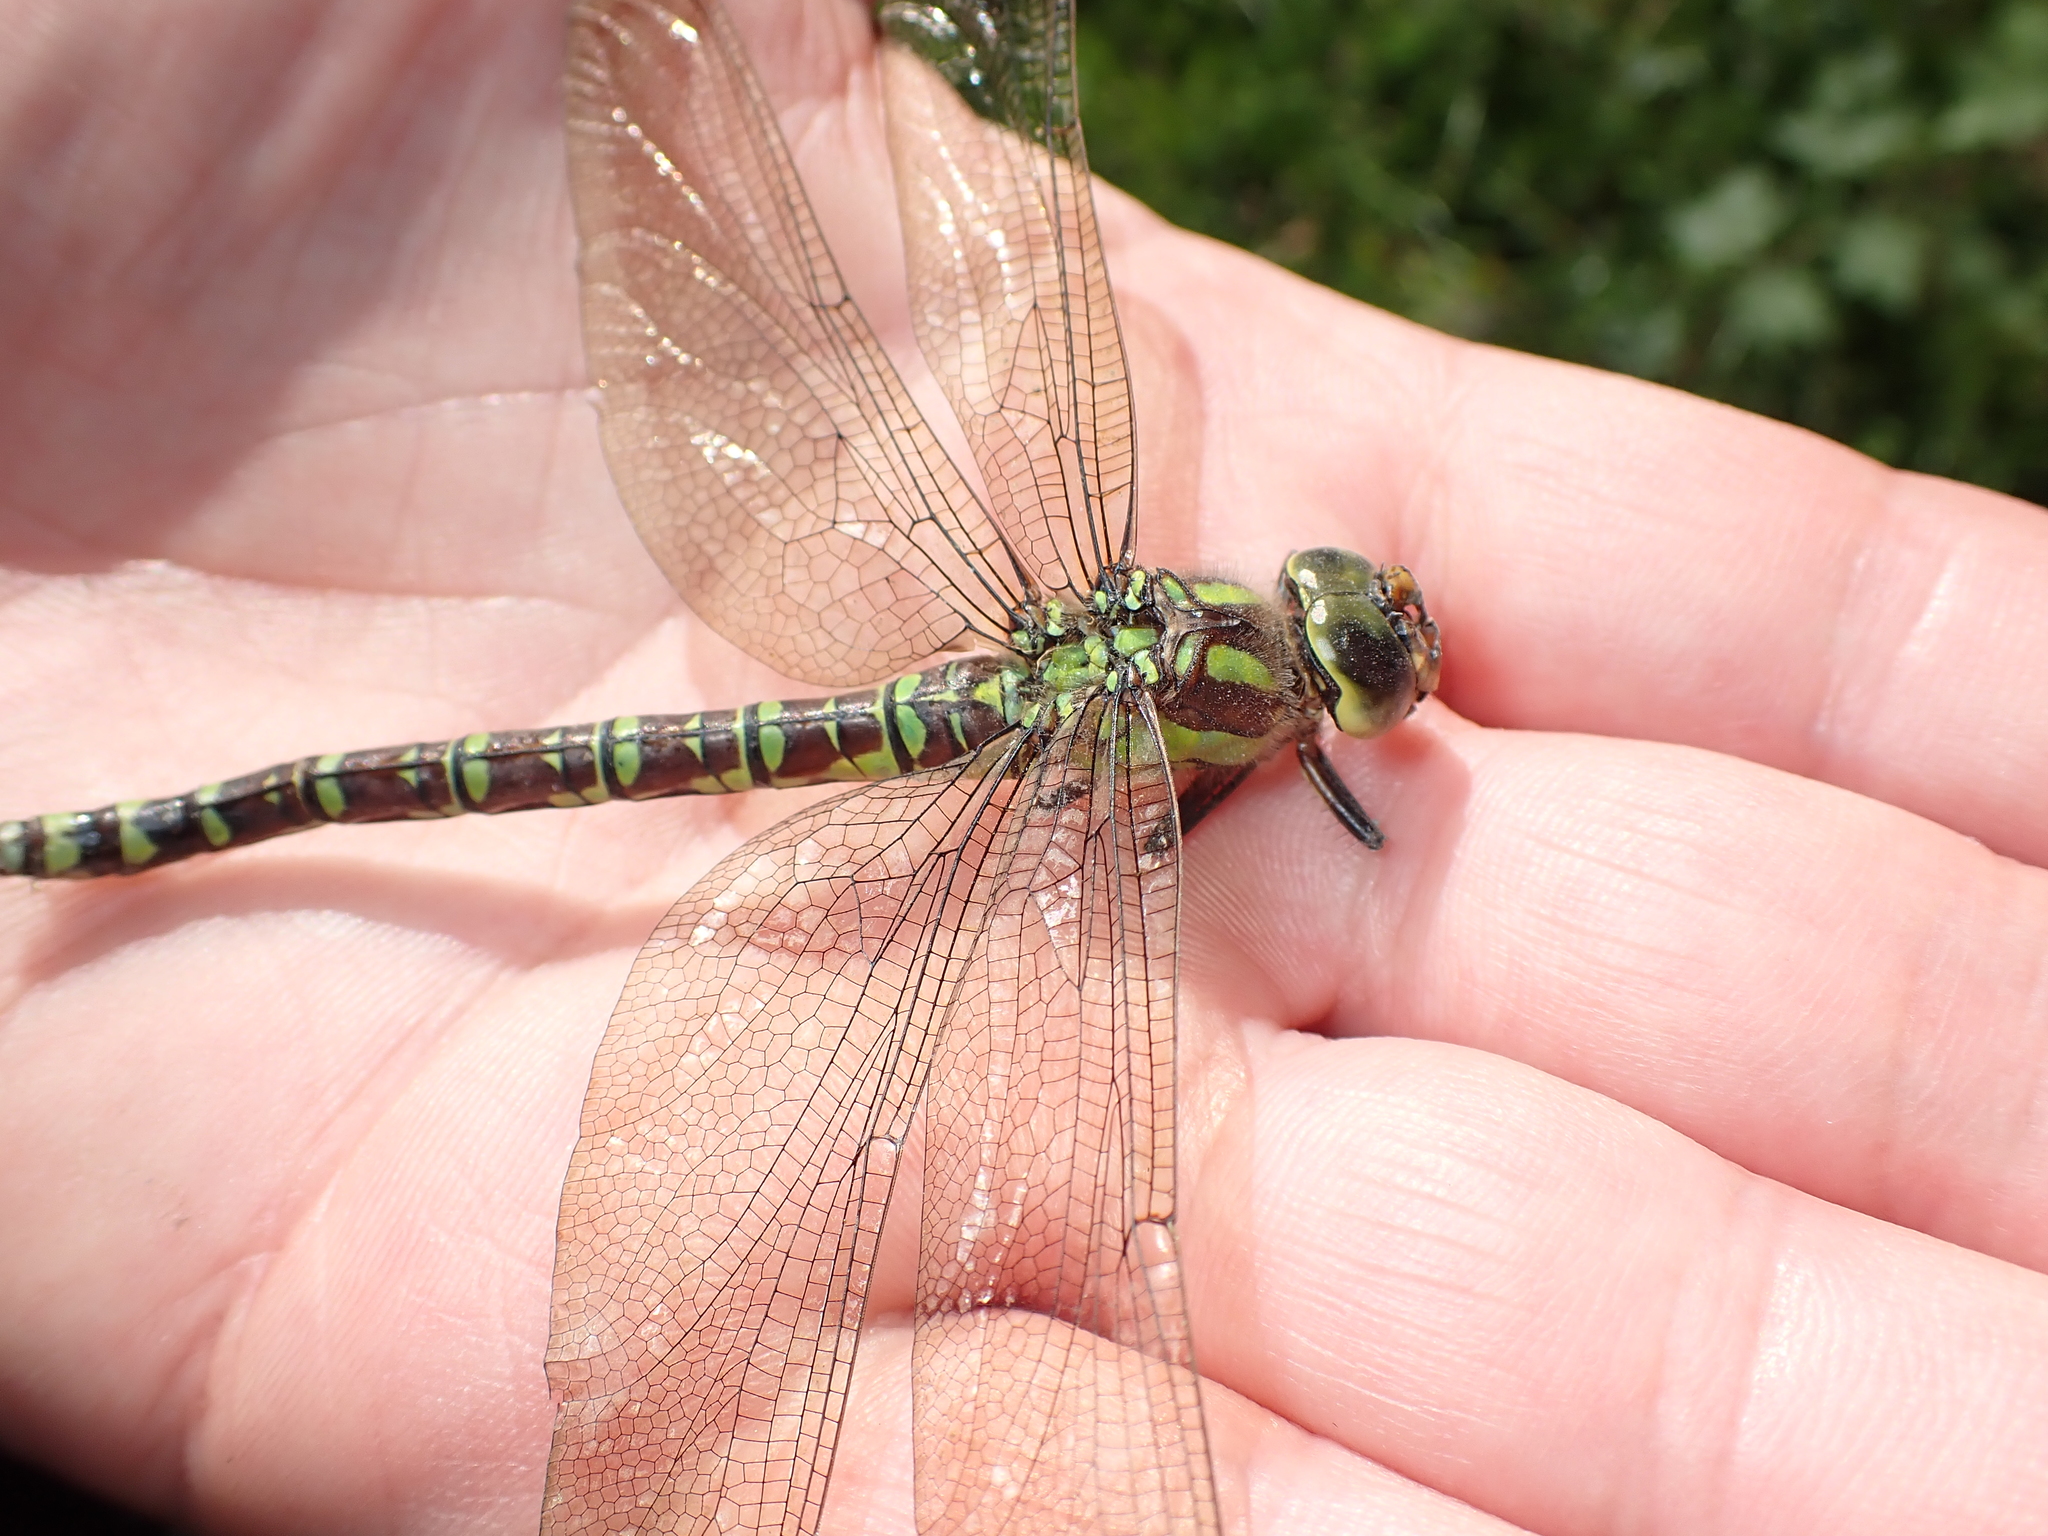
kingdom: Animalia
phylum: Arthropoda
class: Insecta
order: Odonata
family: Aeshnidae
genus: Aeshna
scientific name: Aeshna cyanea
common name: Southern hawker
